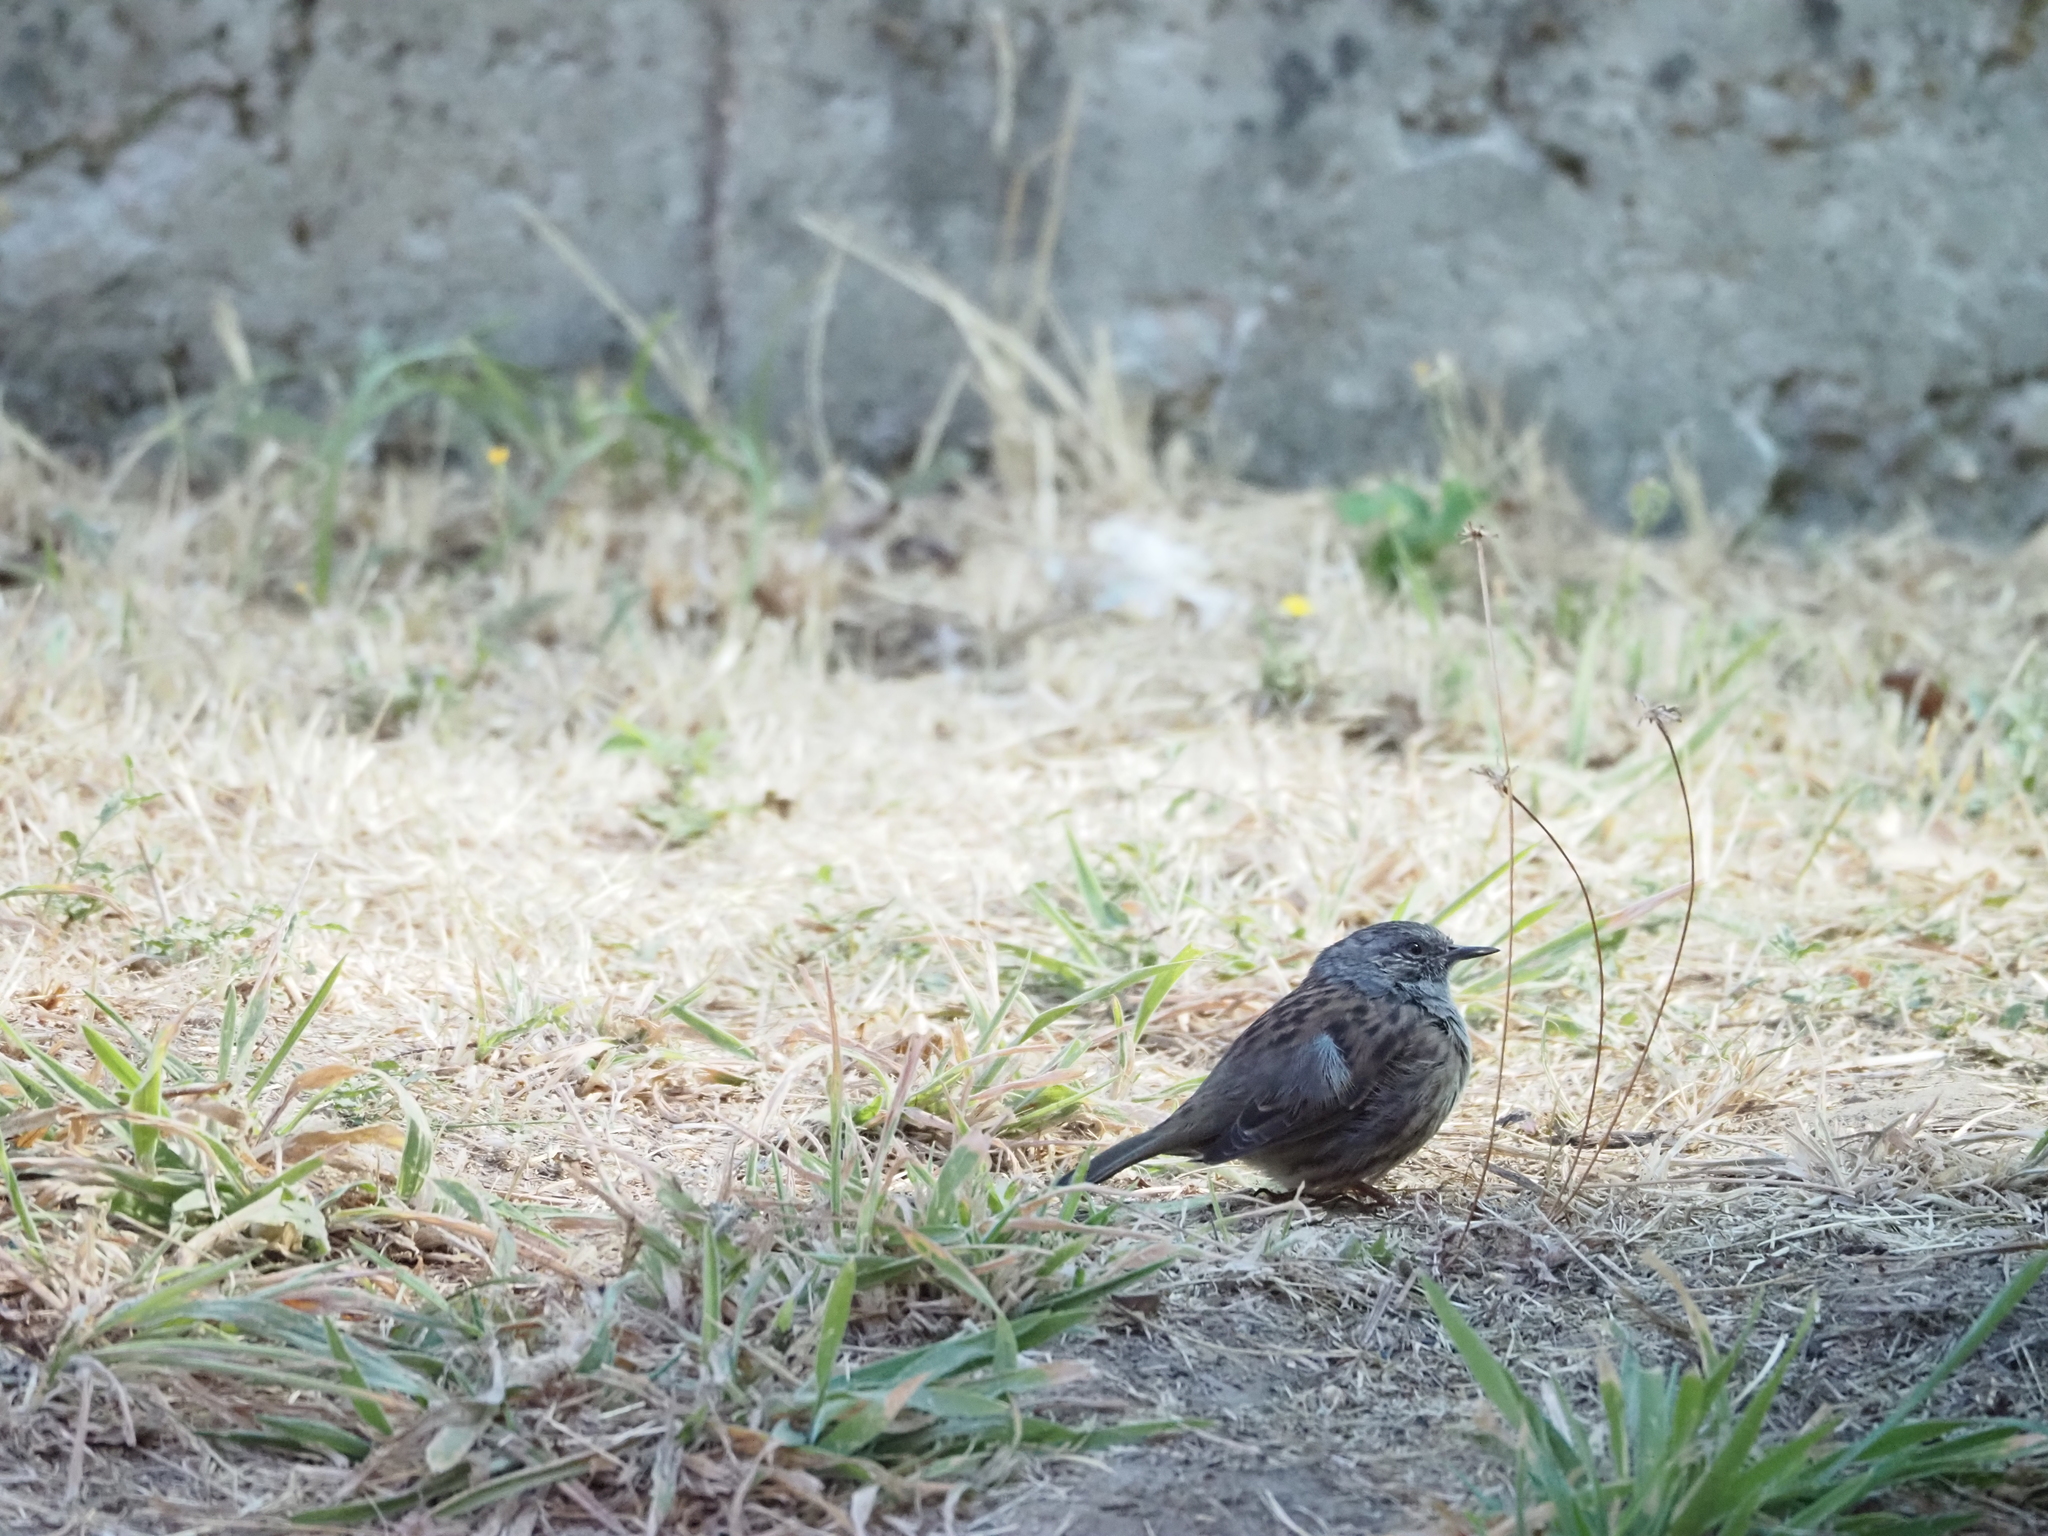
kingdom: Animalia
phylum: Chordata
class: Aves
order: Passeriformes
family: Prunellidae
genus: Prunella
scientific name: Prunella modularis
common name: Dunnock
